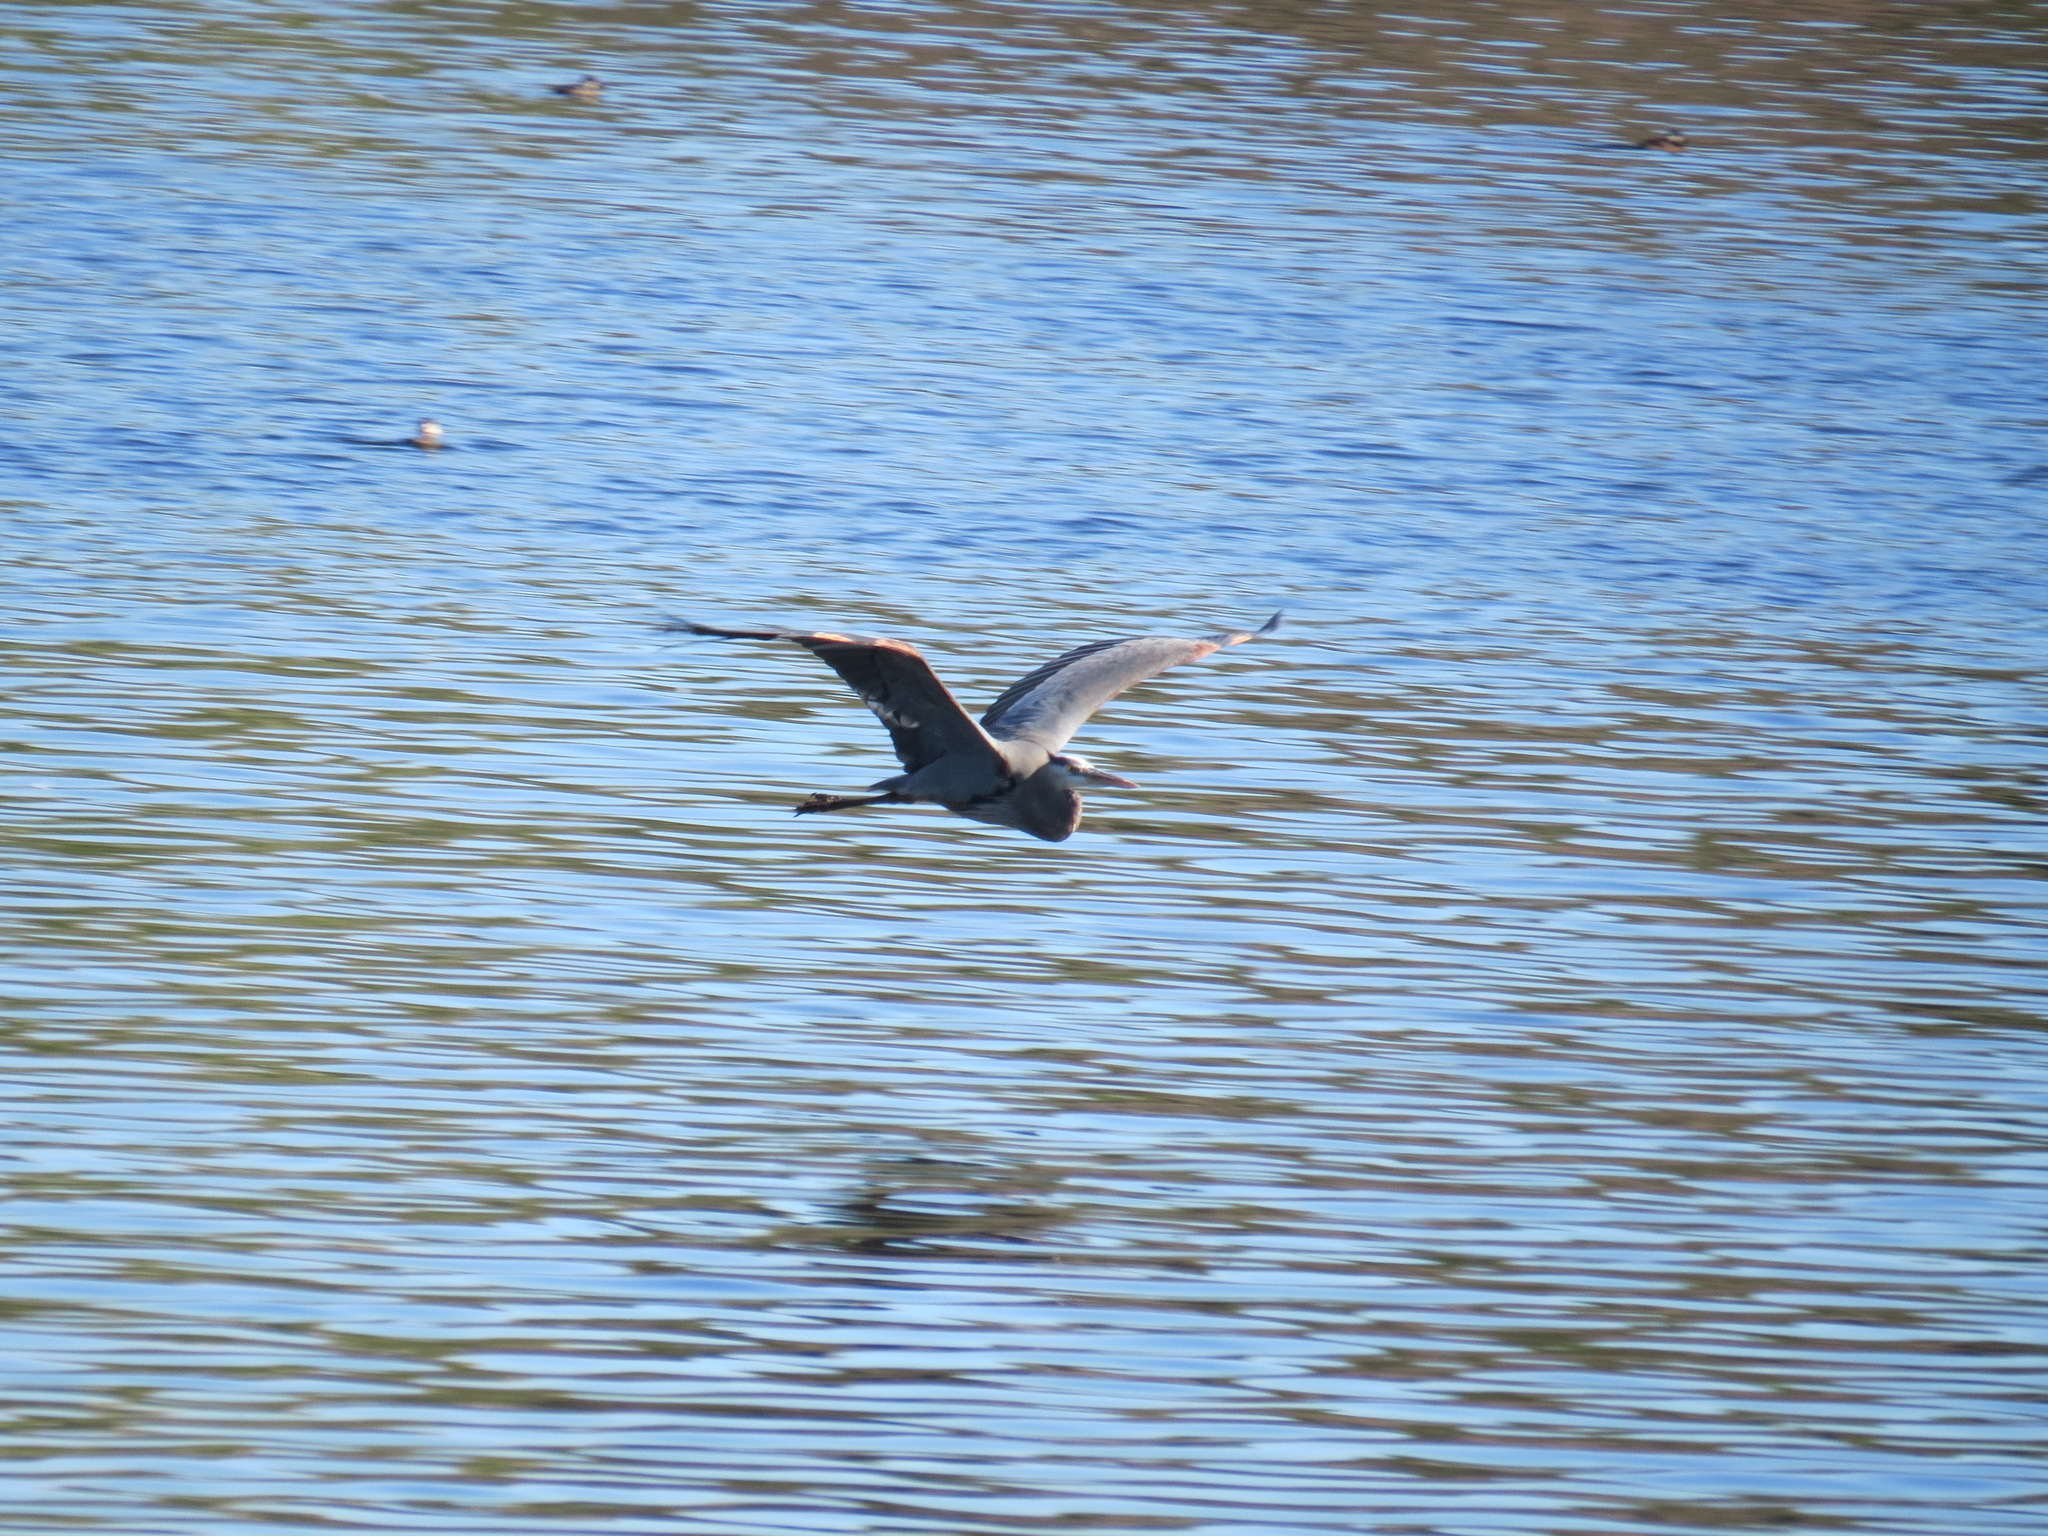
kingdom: Animalia
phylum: Chordata
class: Aves
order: Pelecaniformes
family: Ardeidae
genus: Ardea
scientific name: Ardea herodias
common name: Great blue heron
